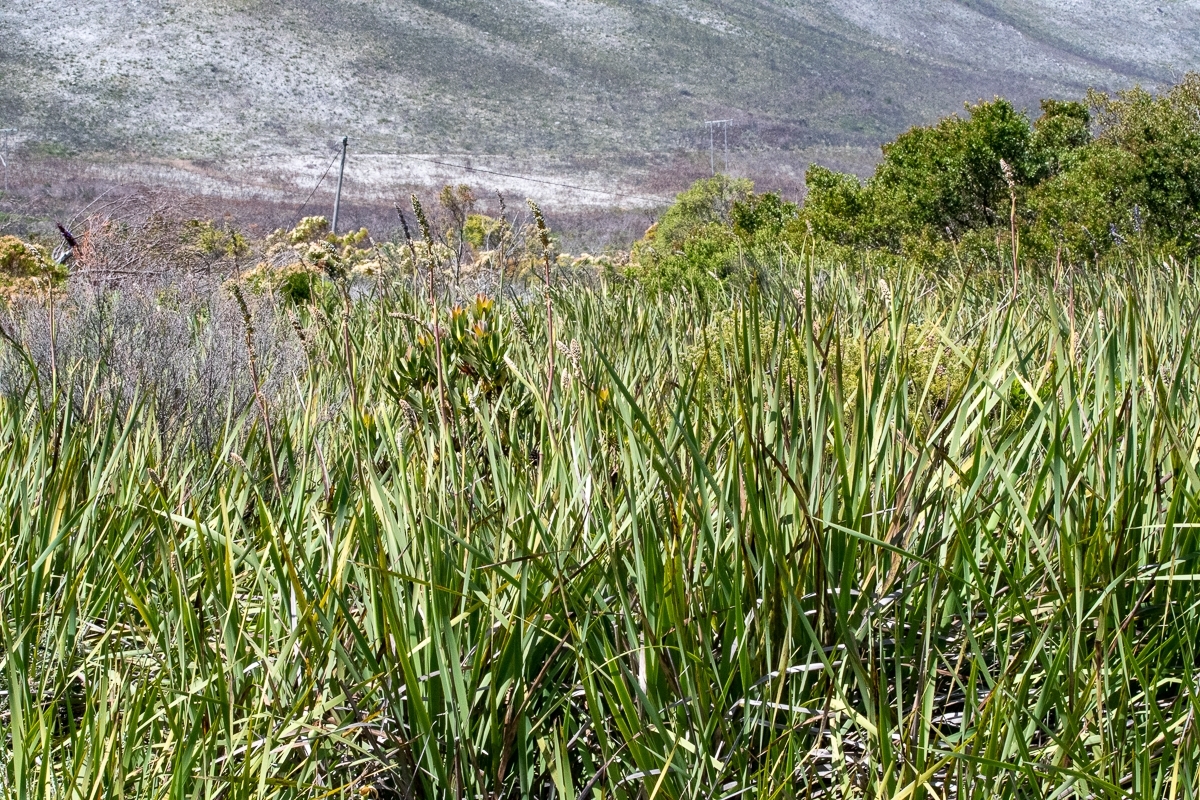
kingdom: Plantae
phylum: Tracheophyta
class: Liliopsida
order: Asparagales
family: Iridaceae
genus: Aristea
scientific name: Aristea capitata
